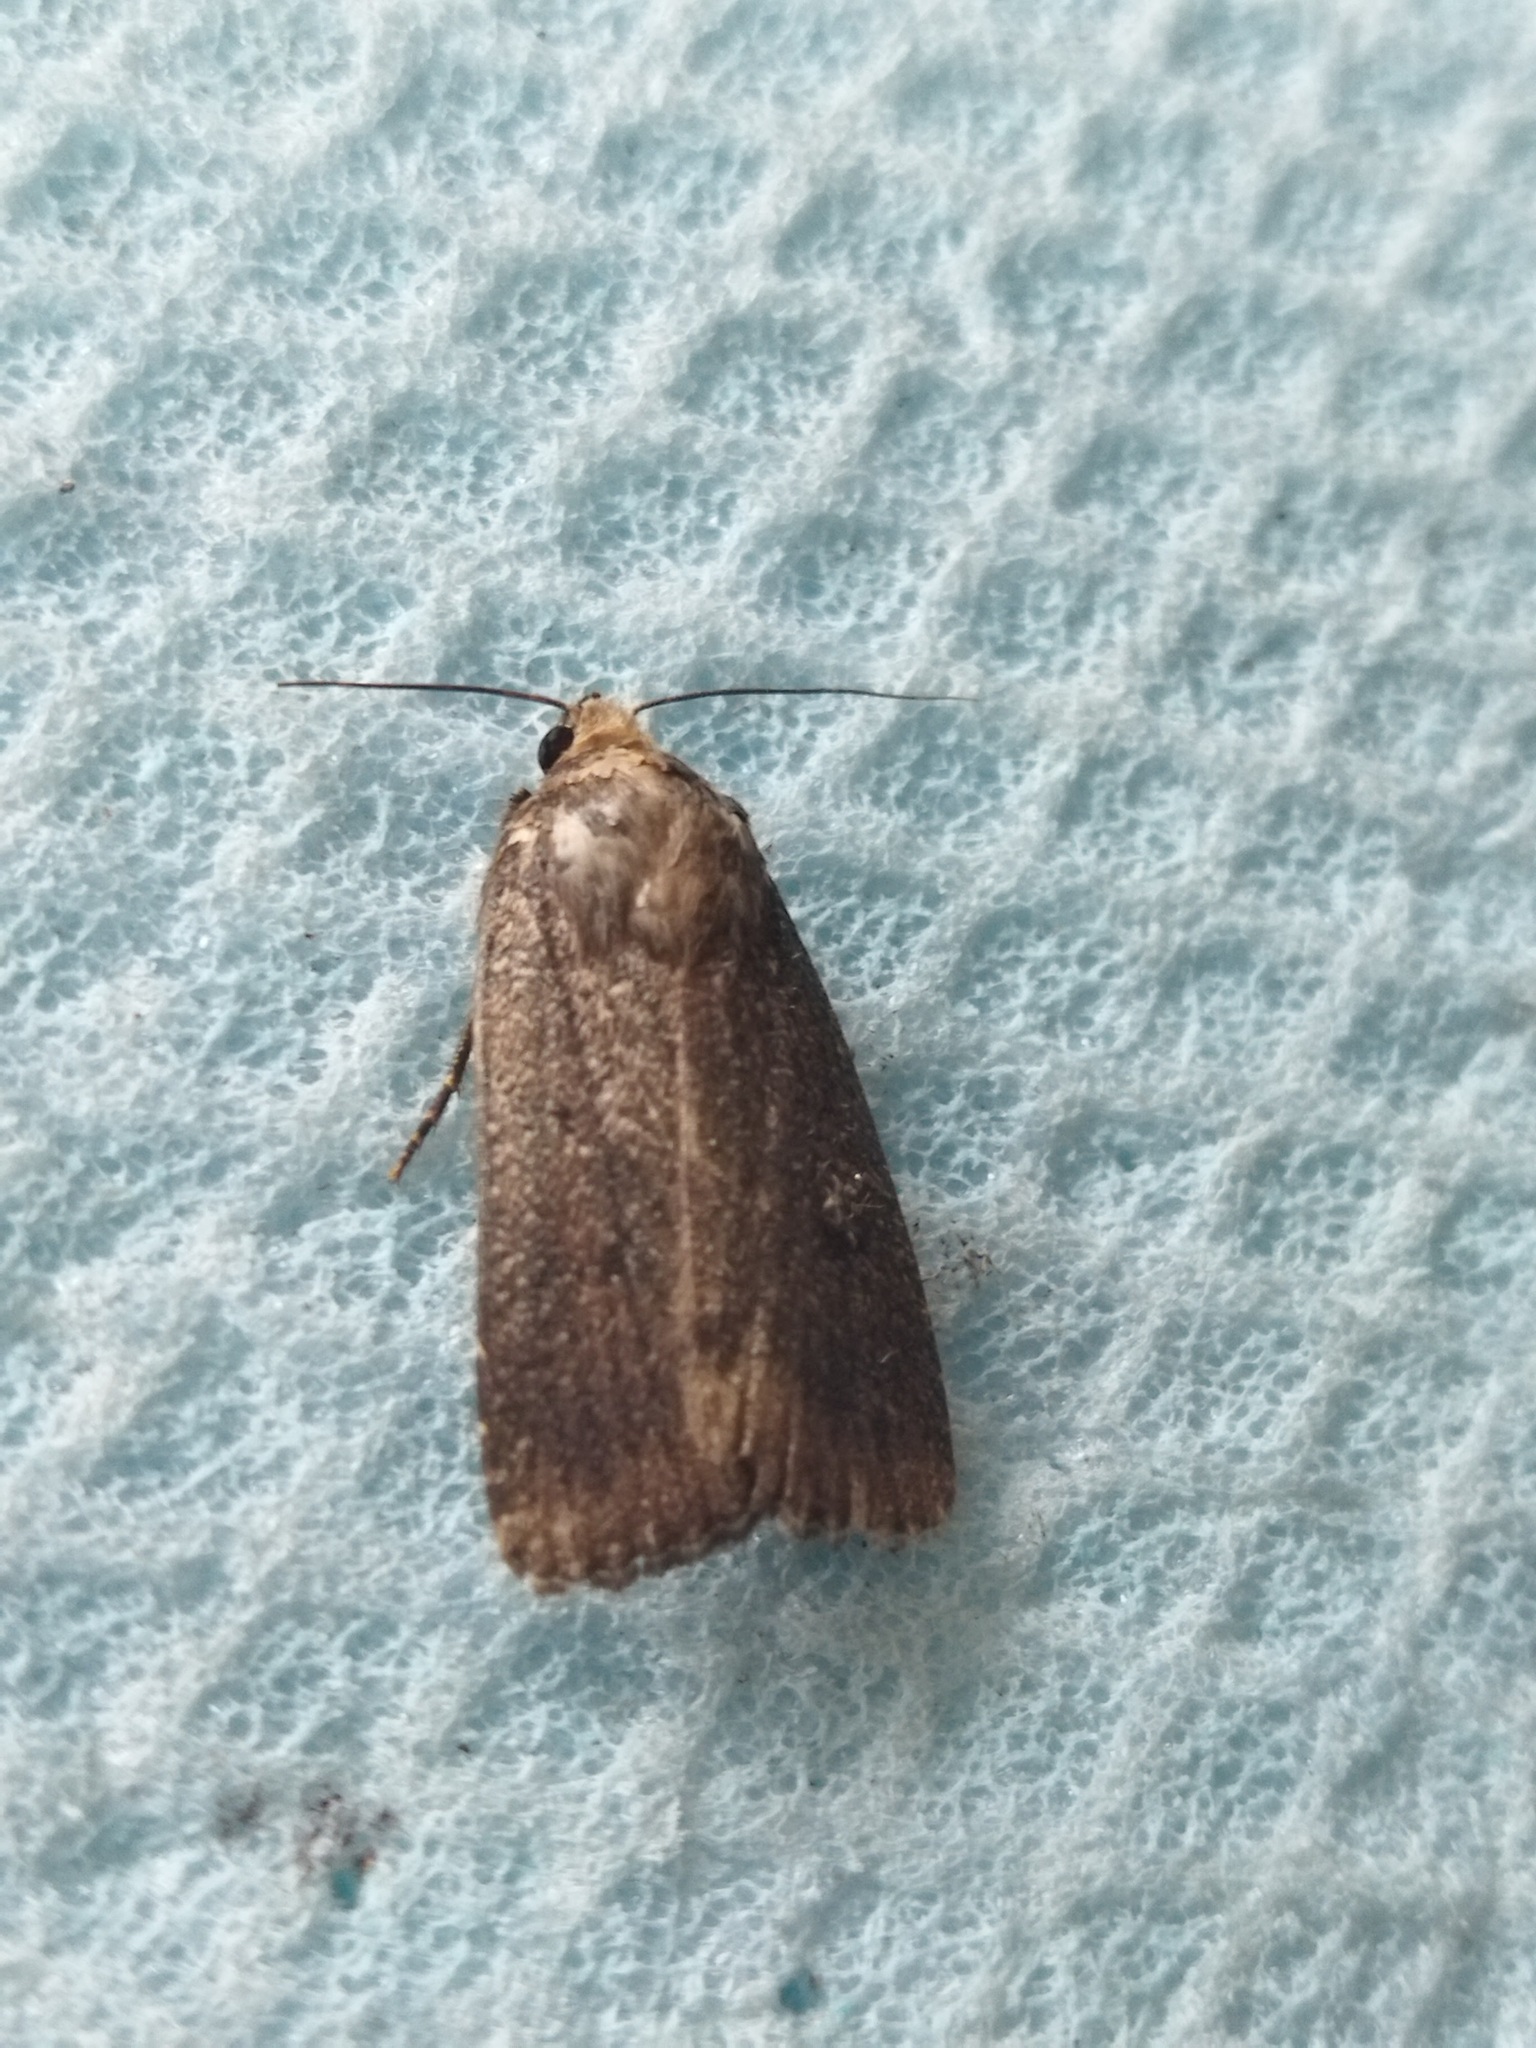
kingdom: Animalia
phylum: Arthropoda
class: Insecta
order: Lepidoptera
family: Noctuidae
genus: Amphipyra
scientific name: Amphipyra tragopoginis
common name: Mouse moth
